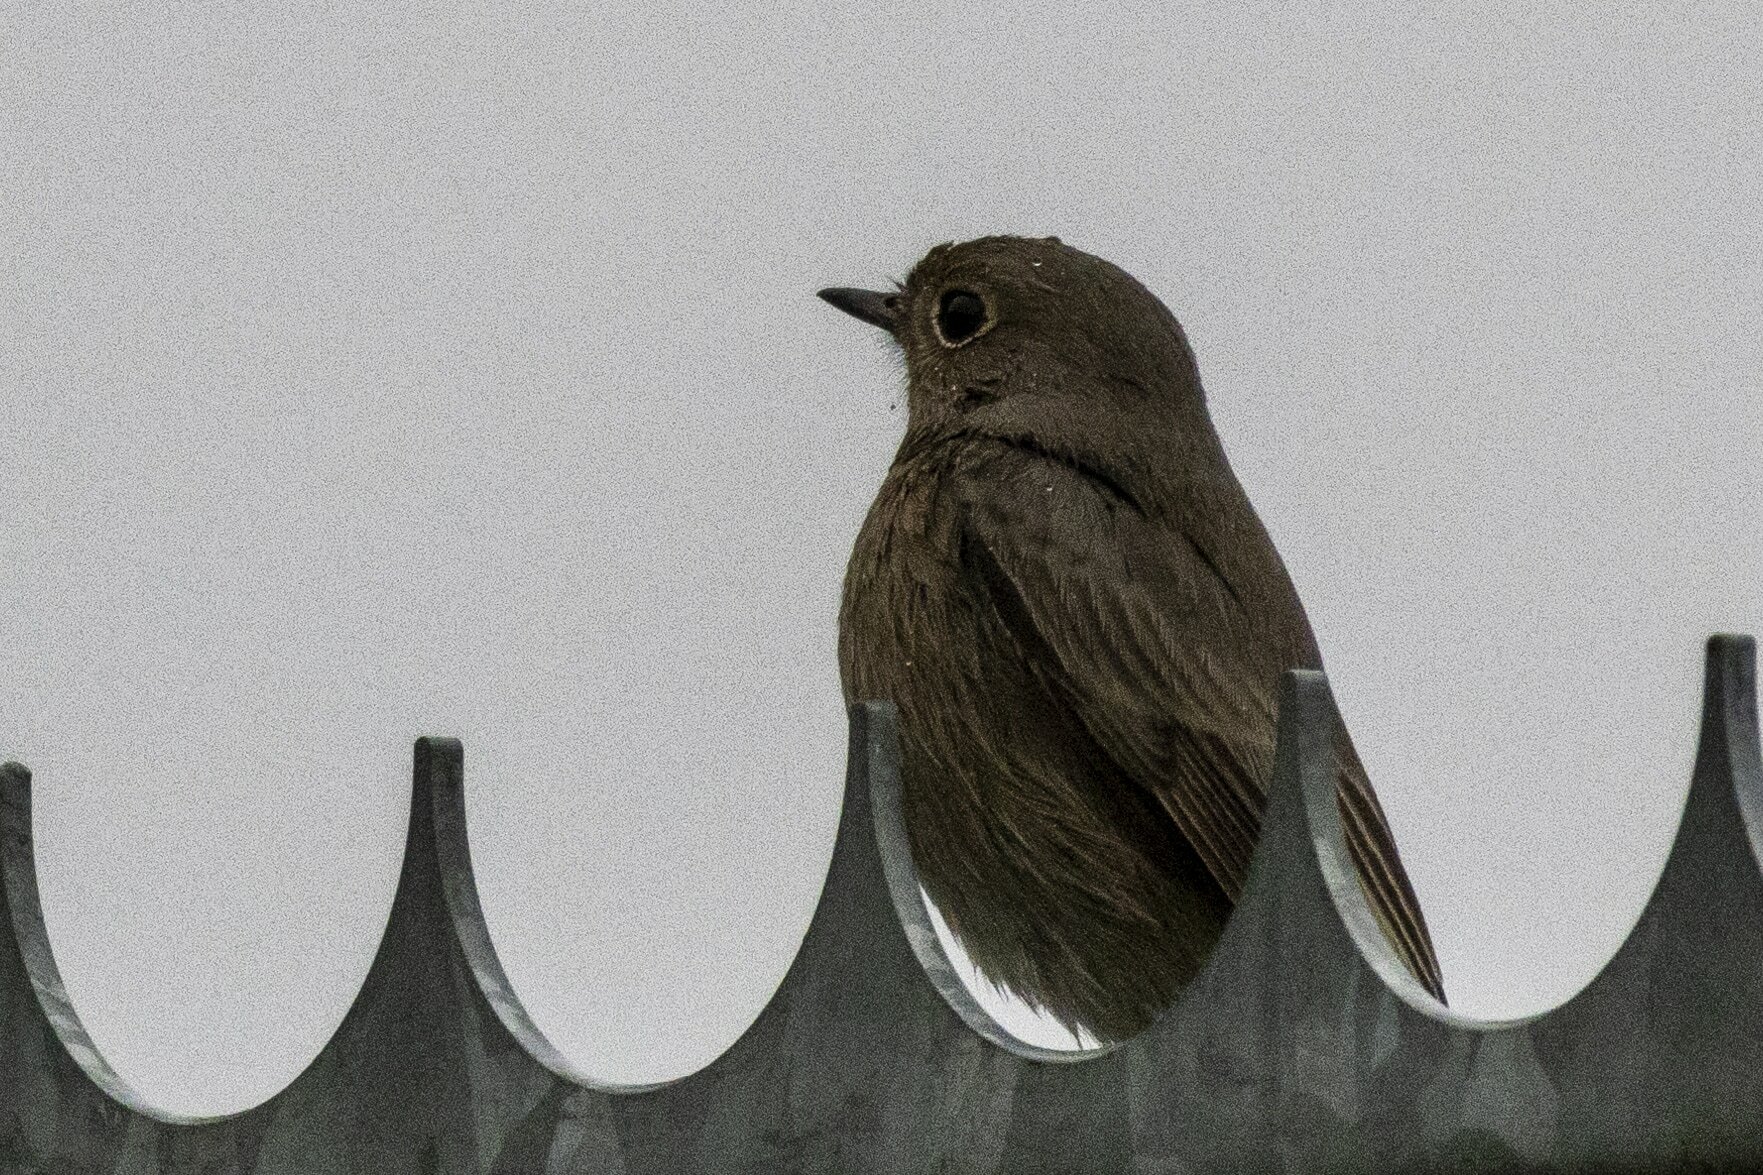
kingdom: Animalia
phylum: Chordata
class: Aves
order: Passeriformes
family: Muscicapidae
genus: Phoenicurus
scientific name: Phoenicurus ochruros
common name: Black redstart
